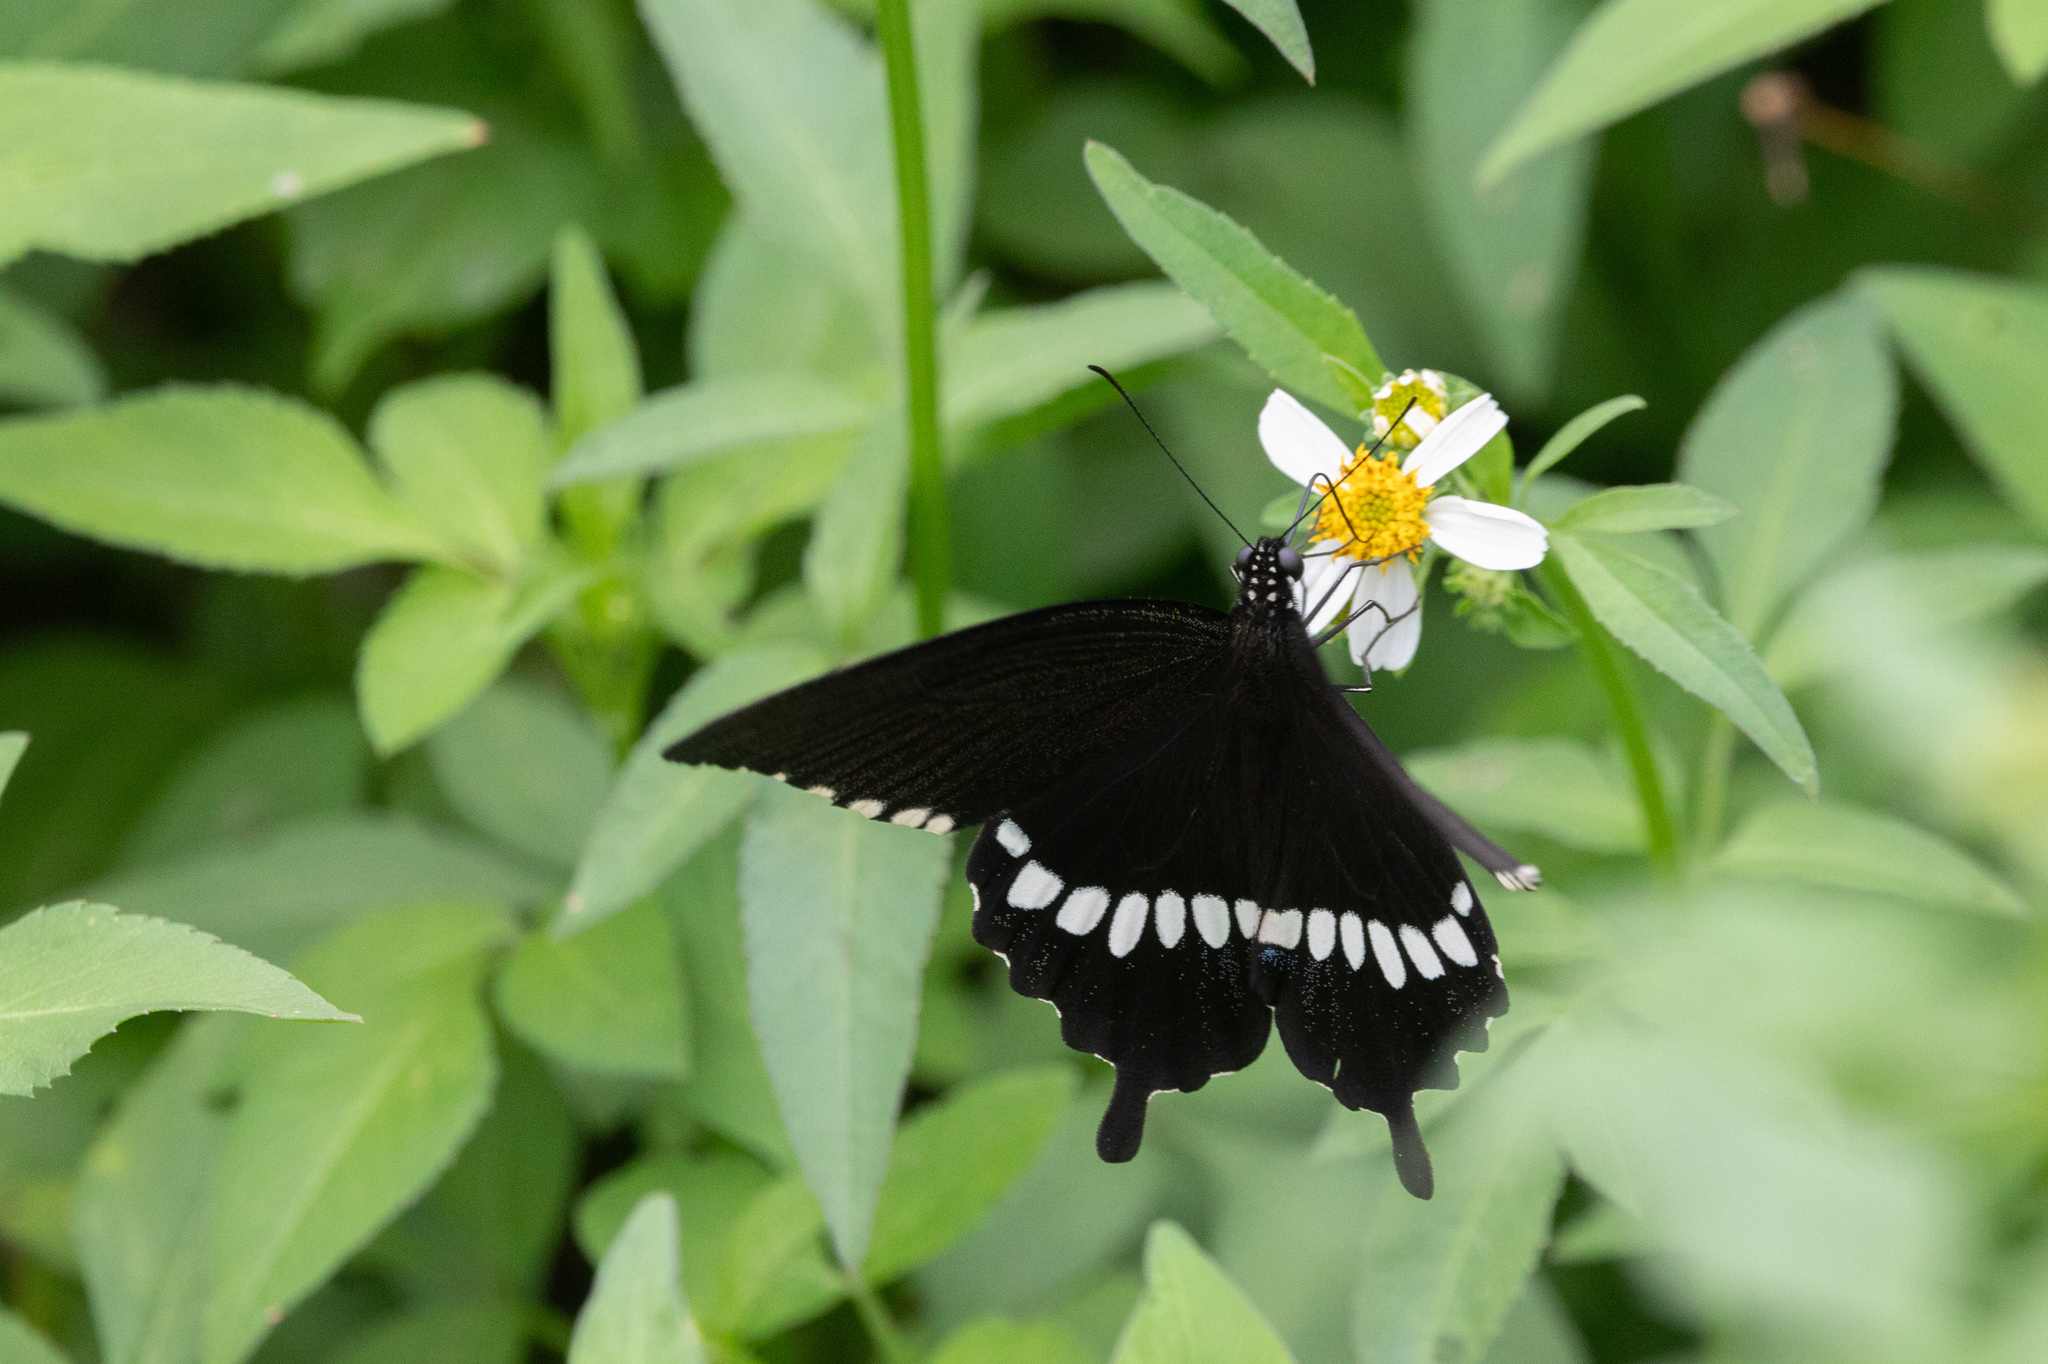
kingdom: Animalia
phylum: Arthropoda
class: Insecta
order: Lepidoptera
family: Papilionidae
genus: Papilio
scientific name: Papilio polytes
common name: Common mormon
